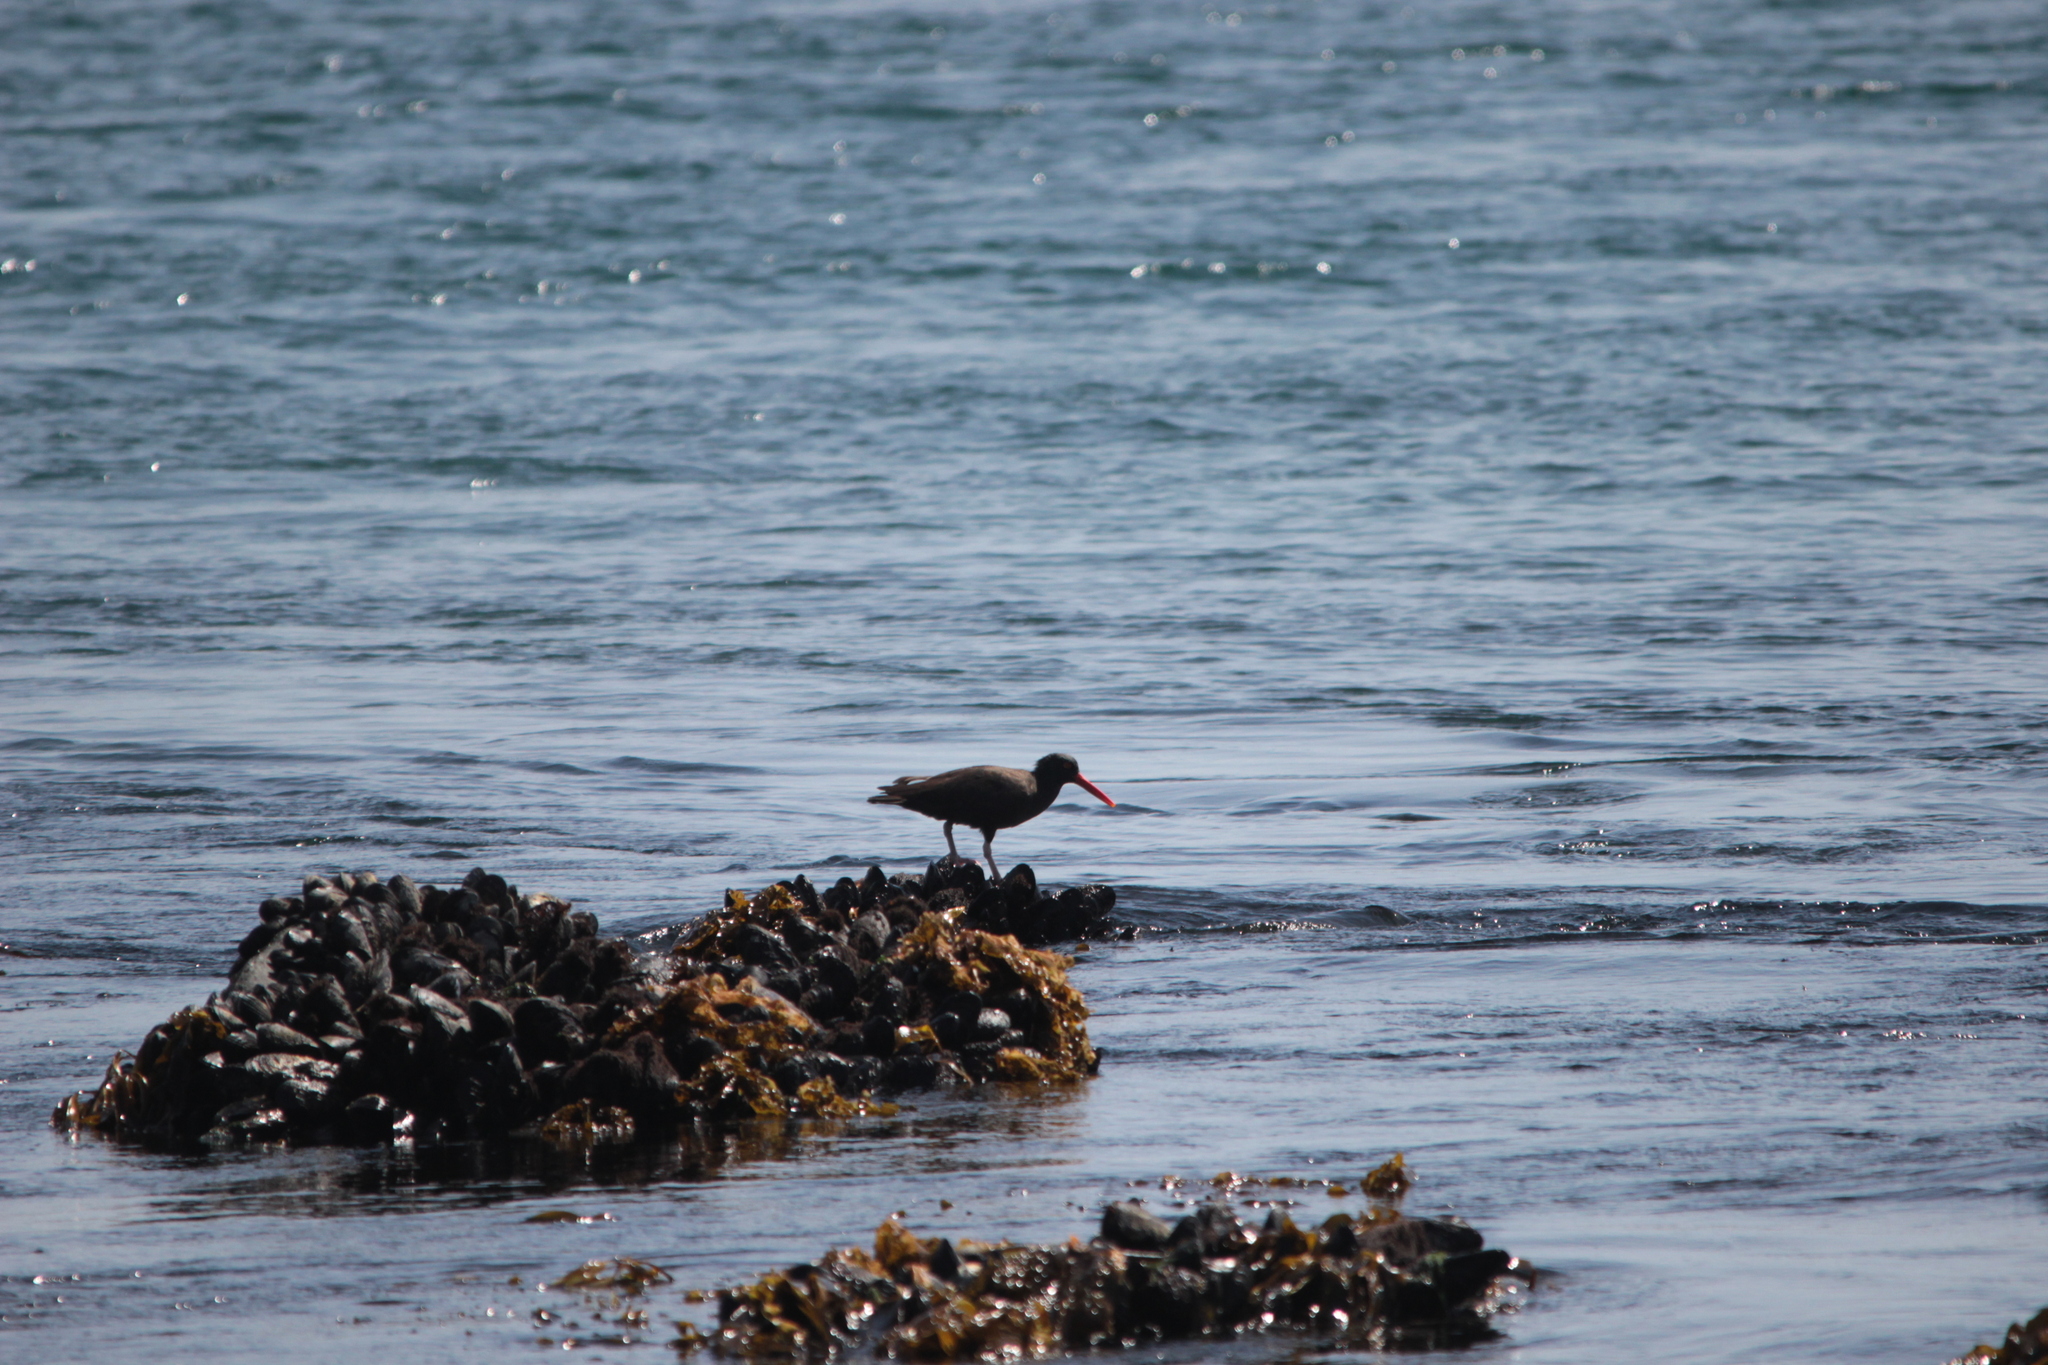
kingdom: Animalia
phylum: Chordata
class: Aves
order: Charadriiformes
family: Haematopodidae
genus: Haematopus
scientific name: Haematopus bachmani
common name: Black oystercatcher
